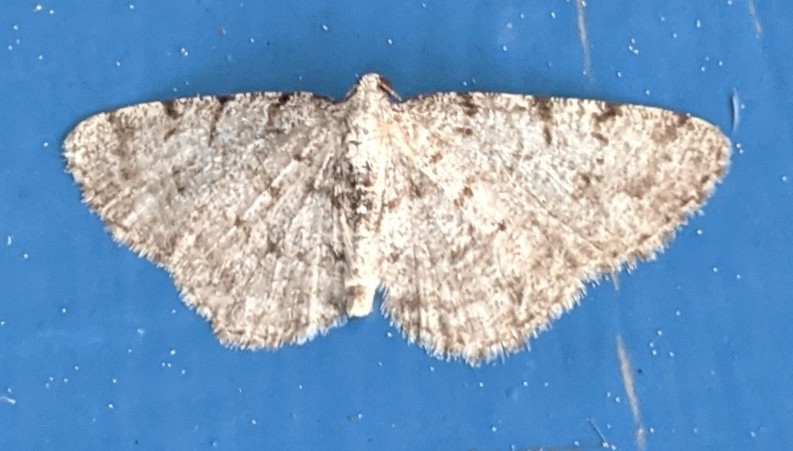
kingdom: Animalia
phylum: Arthropoda
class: Insecta
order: Lepidoptera
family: Geometridae
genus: Aethalura
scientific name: Aethalura intertexta
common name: Four-barred gray
